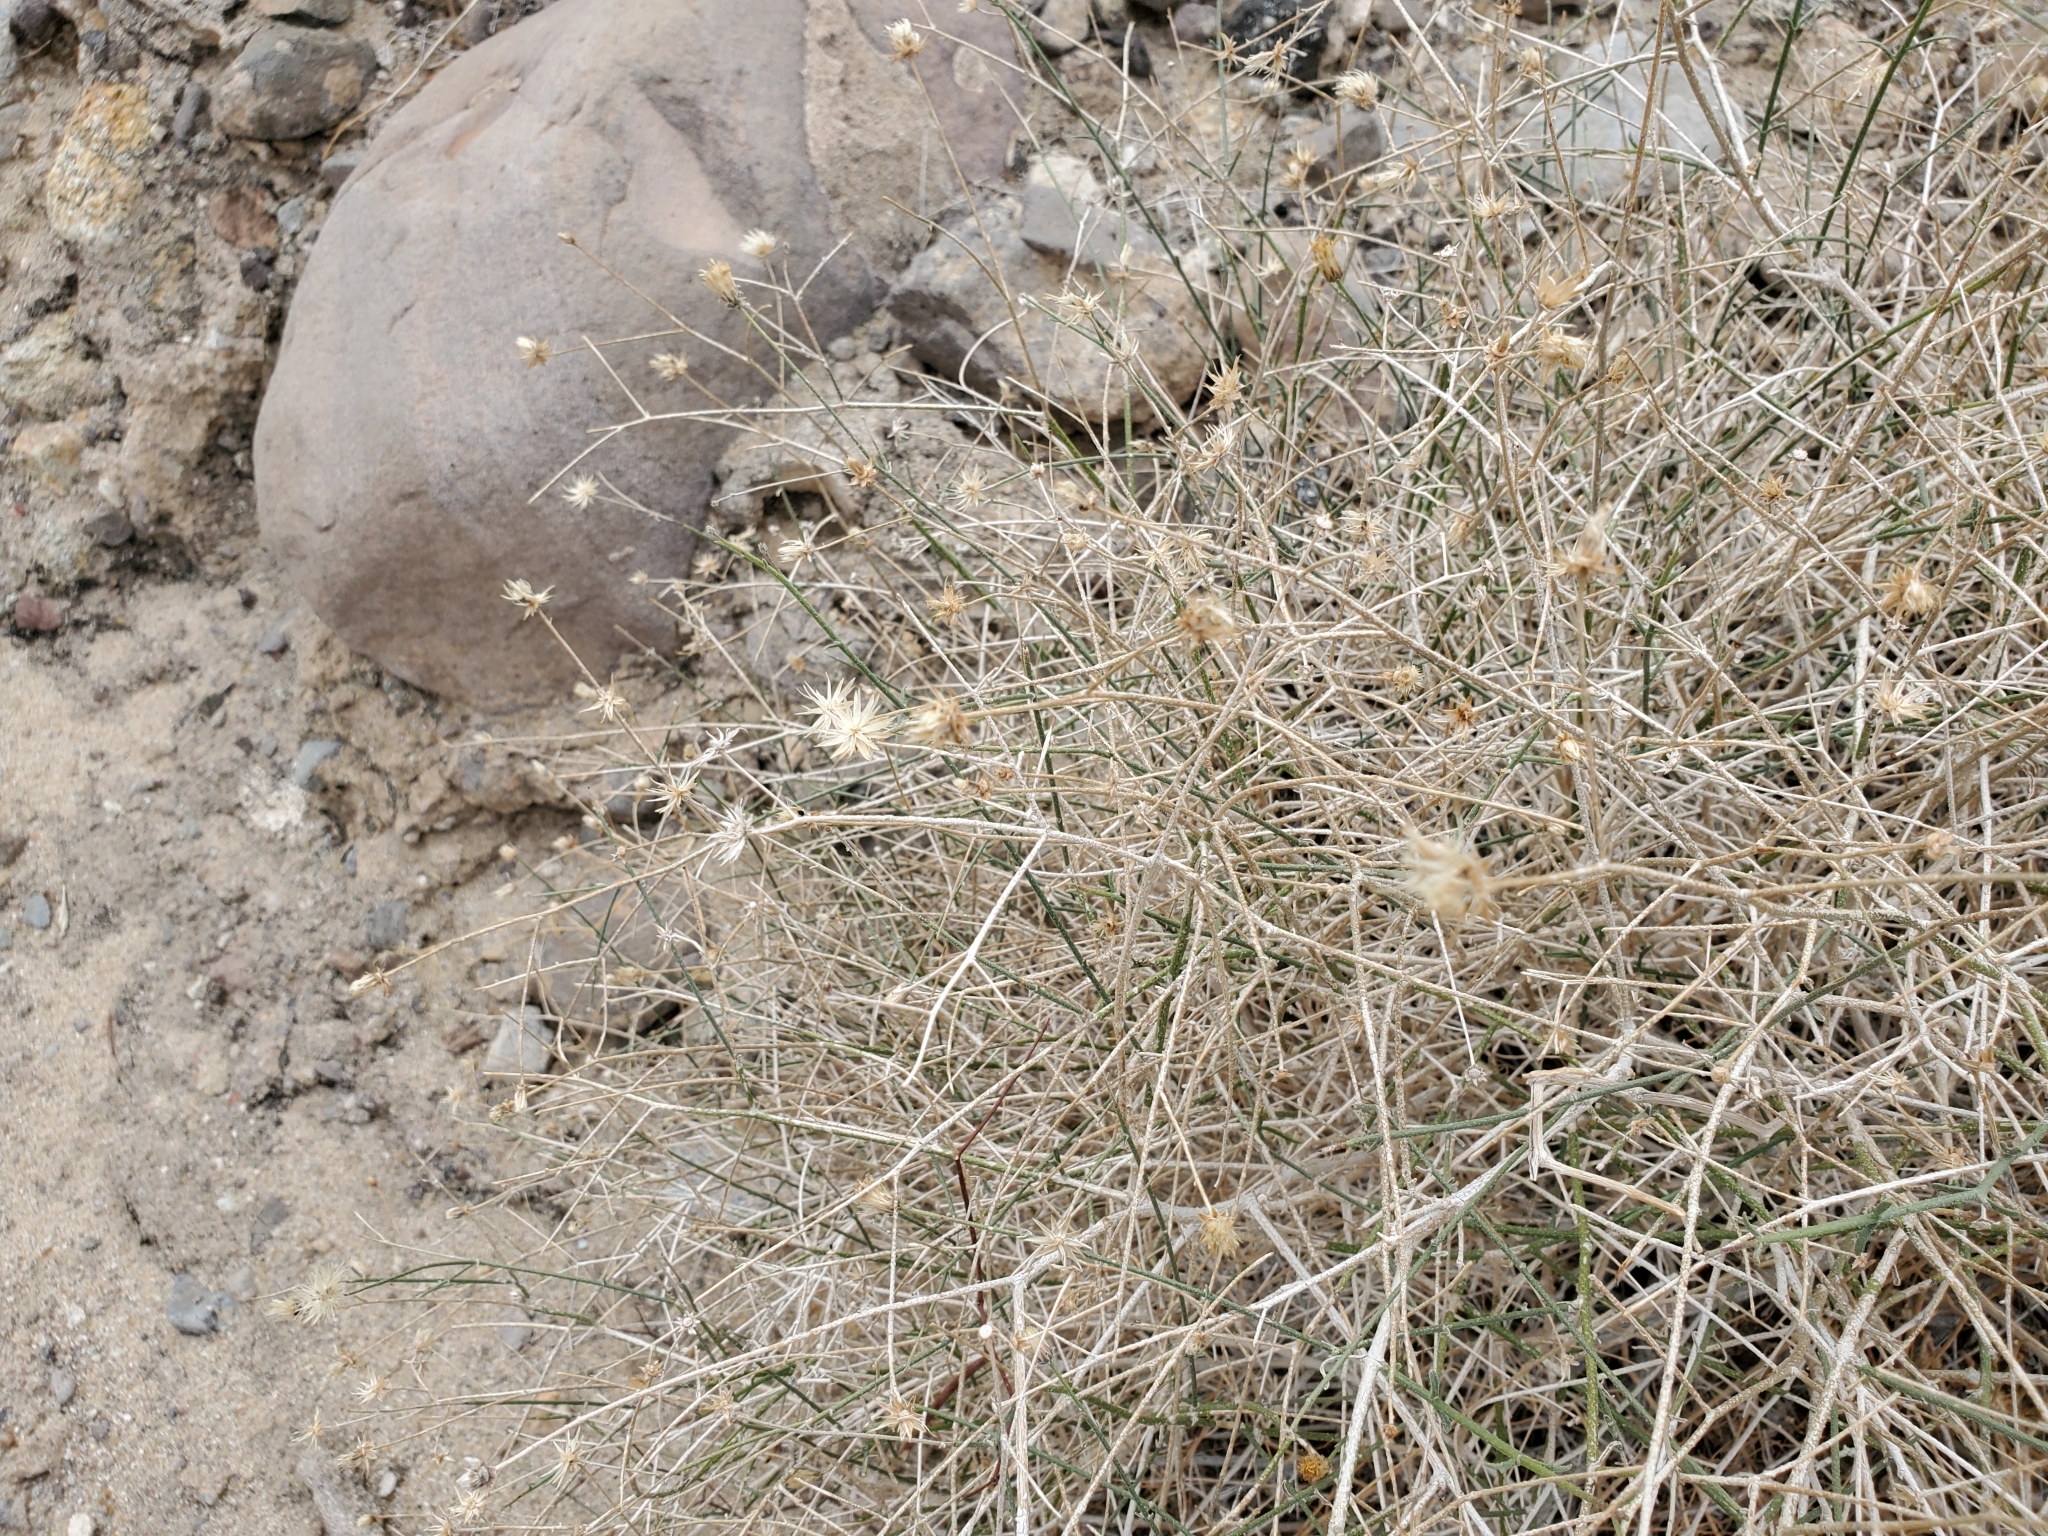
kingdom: Plantae
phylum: Tracheophyta
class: Magnoliopsida
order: Asterales
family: Asteraceae
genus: Bebbia
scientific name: Bebbia juncea
